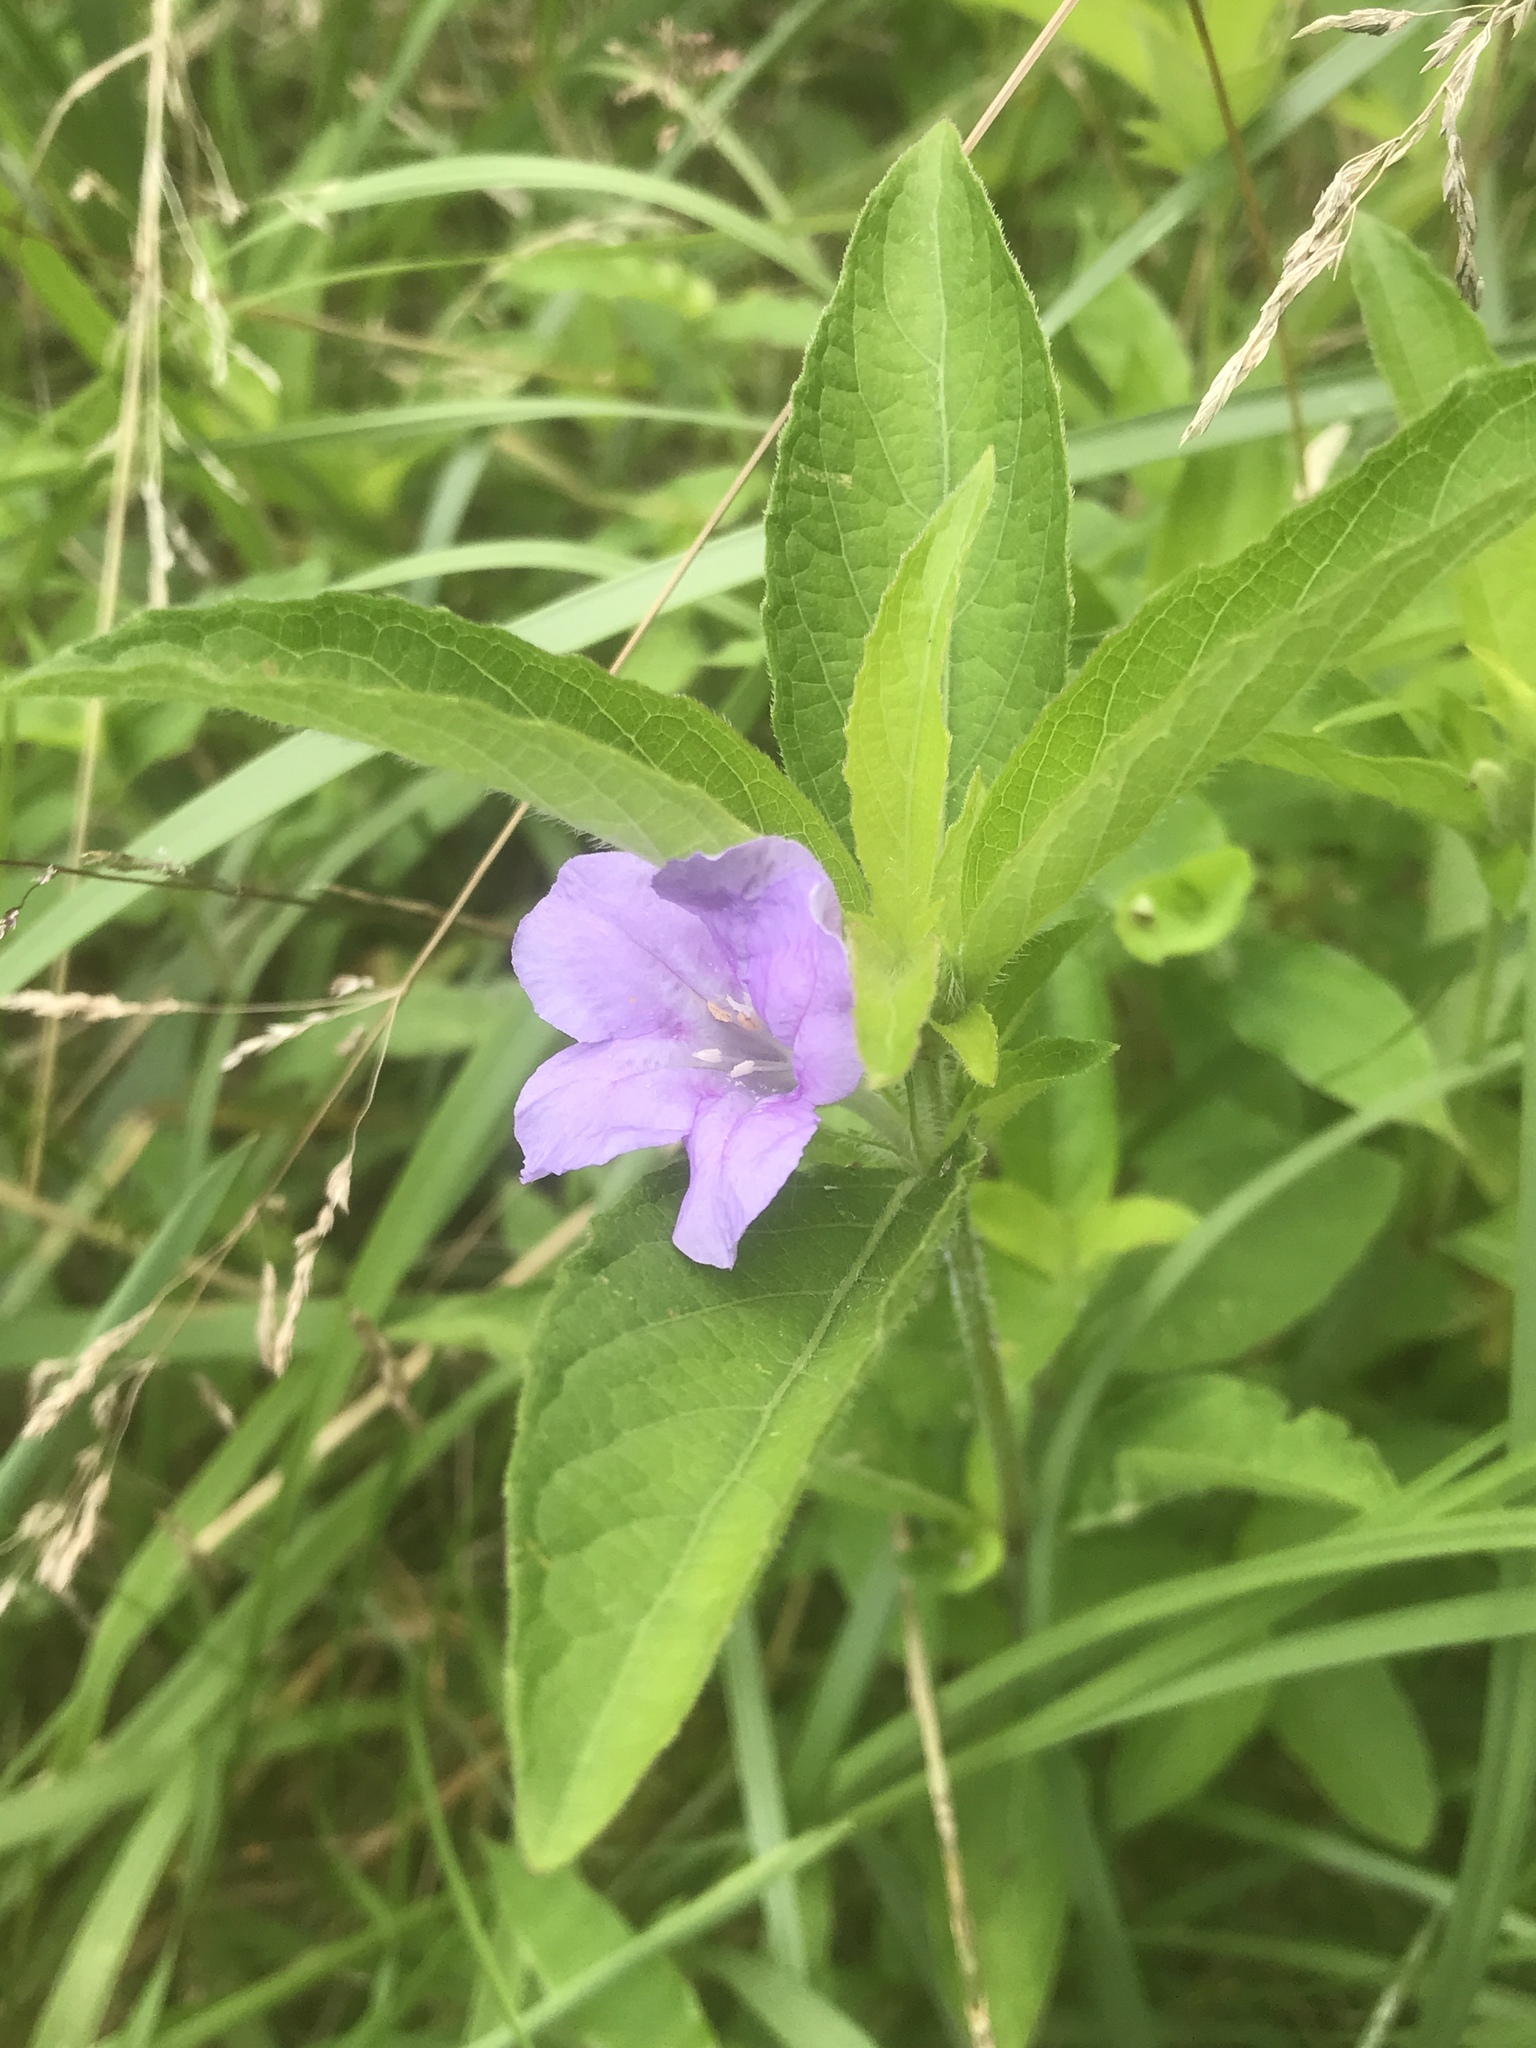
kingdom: Plantae
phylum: Tracheophyta
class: Magnoliopsida
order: Lamiales
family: Acanthaceae
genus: Ruellia
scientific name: Ruellia caroliniensis
